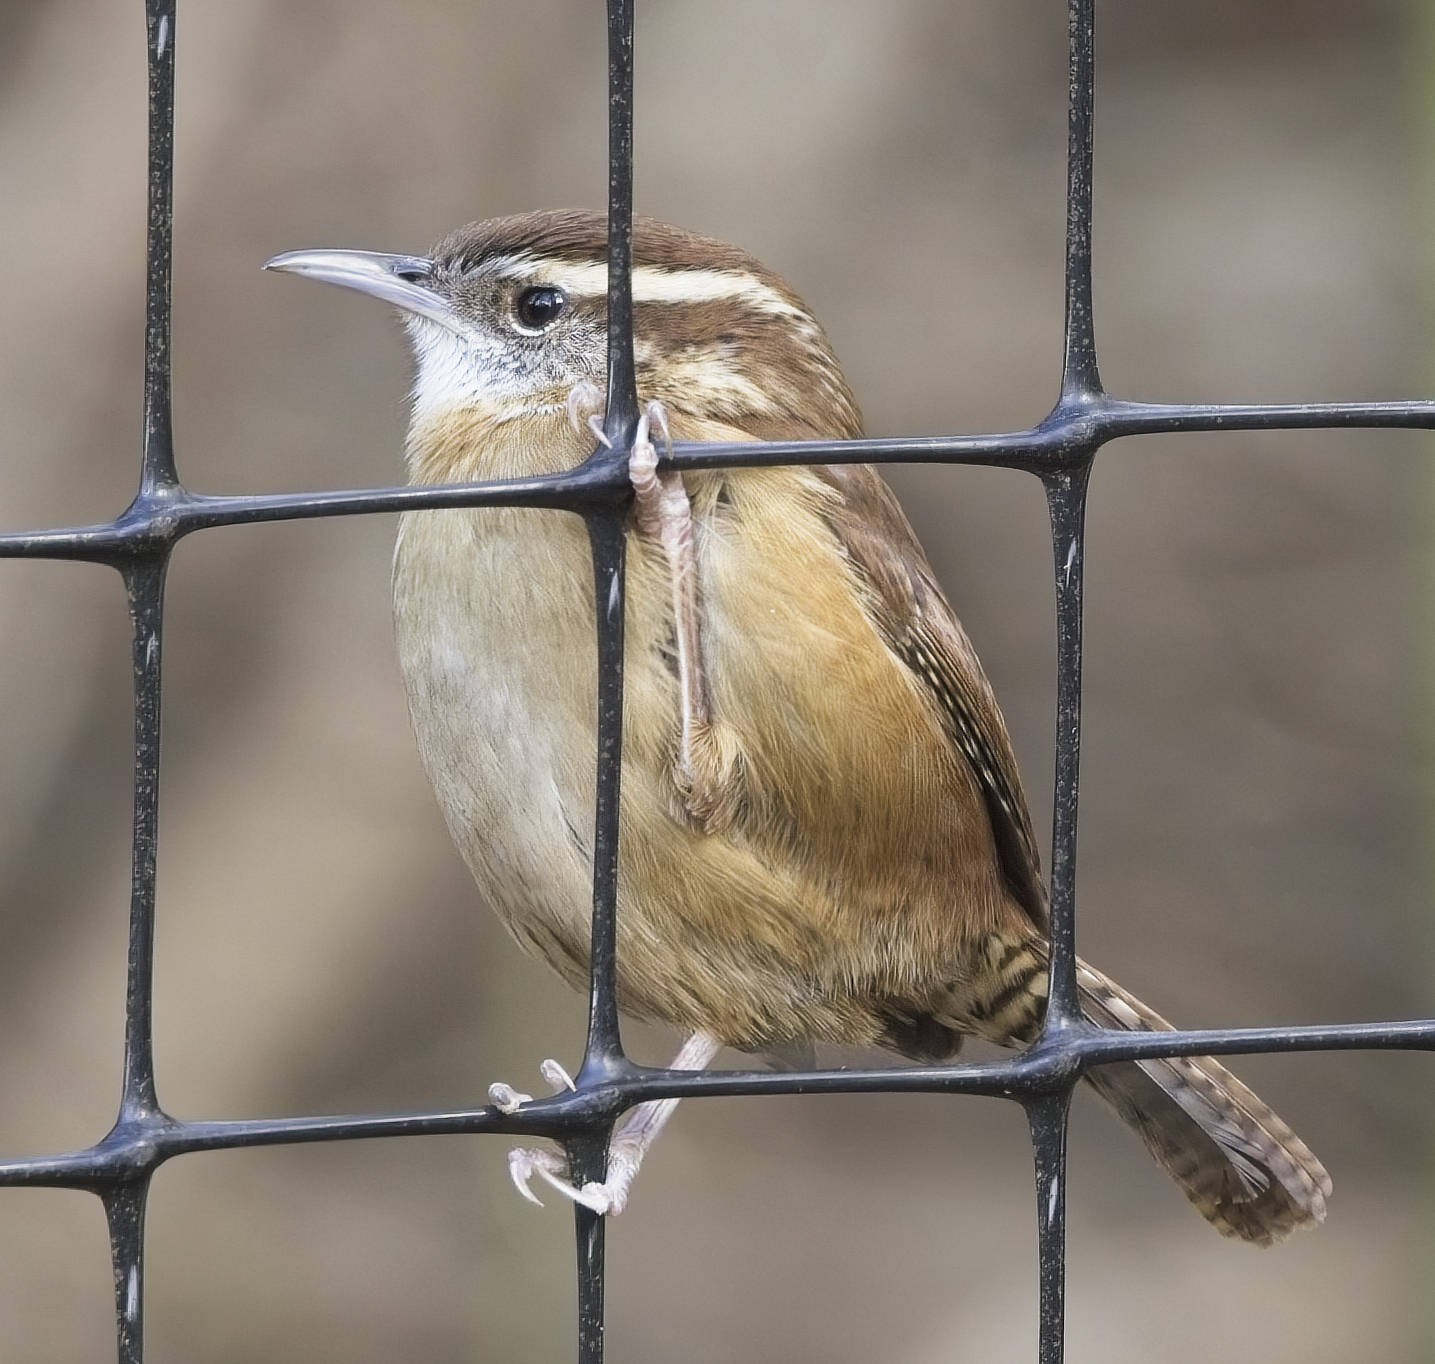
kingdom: Animalia
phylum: Chordata
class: Aves
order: Passeriformes
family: Troglodytidae
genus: Thryothorus
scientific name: Thryothorus ludovicianus
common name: Carolina wren
